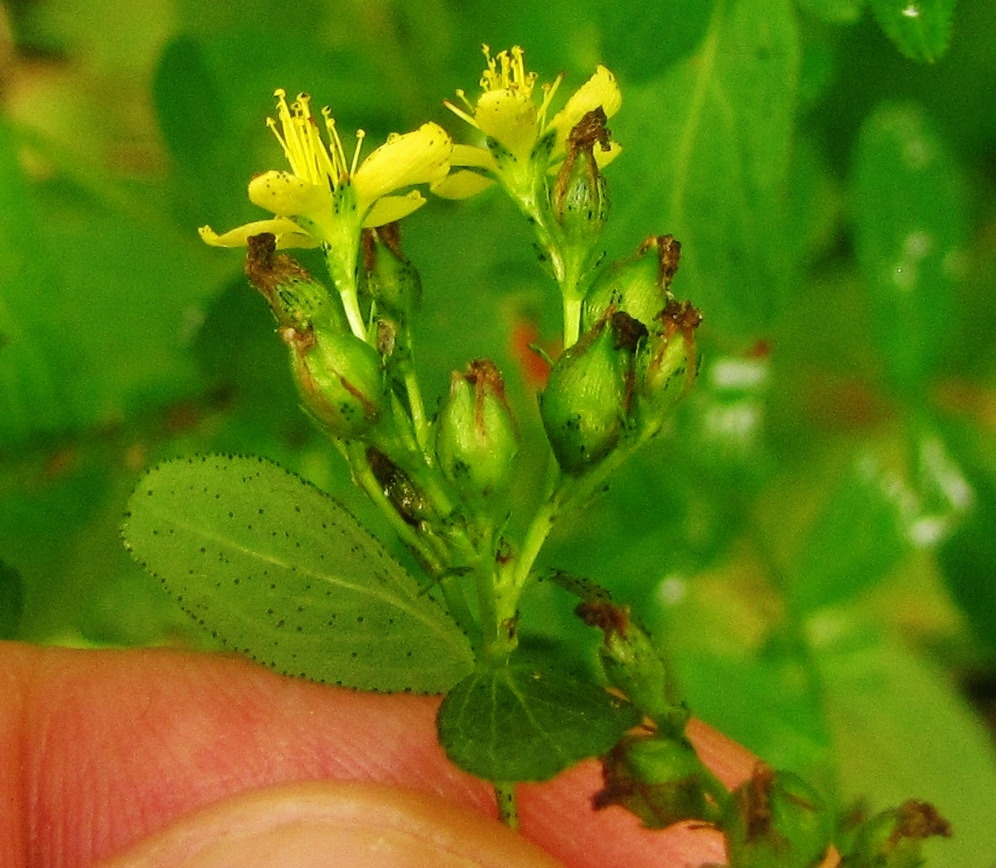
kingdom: Plantae
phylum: Tracheophyta
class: Magnoliopsida
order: Malpighiales
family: Hypericaceae
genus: Hypericum
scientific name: Hypericum punctatum
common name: Spotted st. john's-wort
